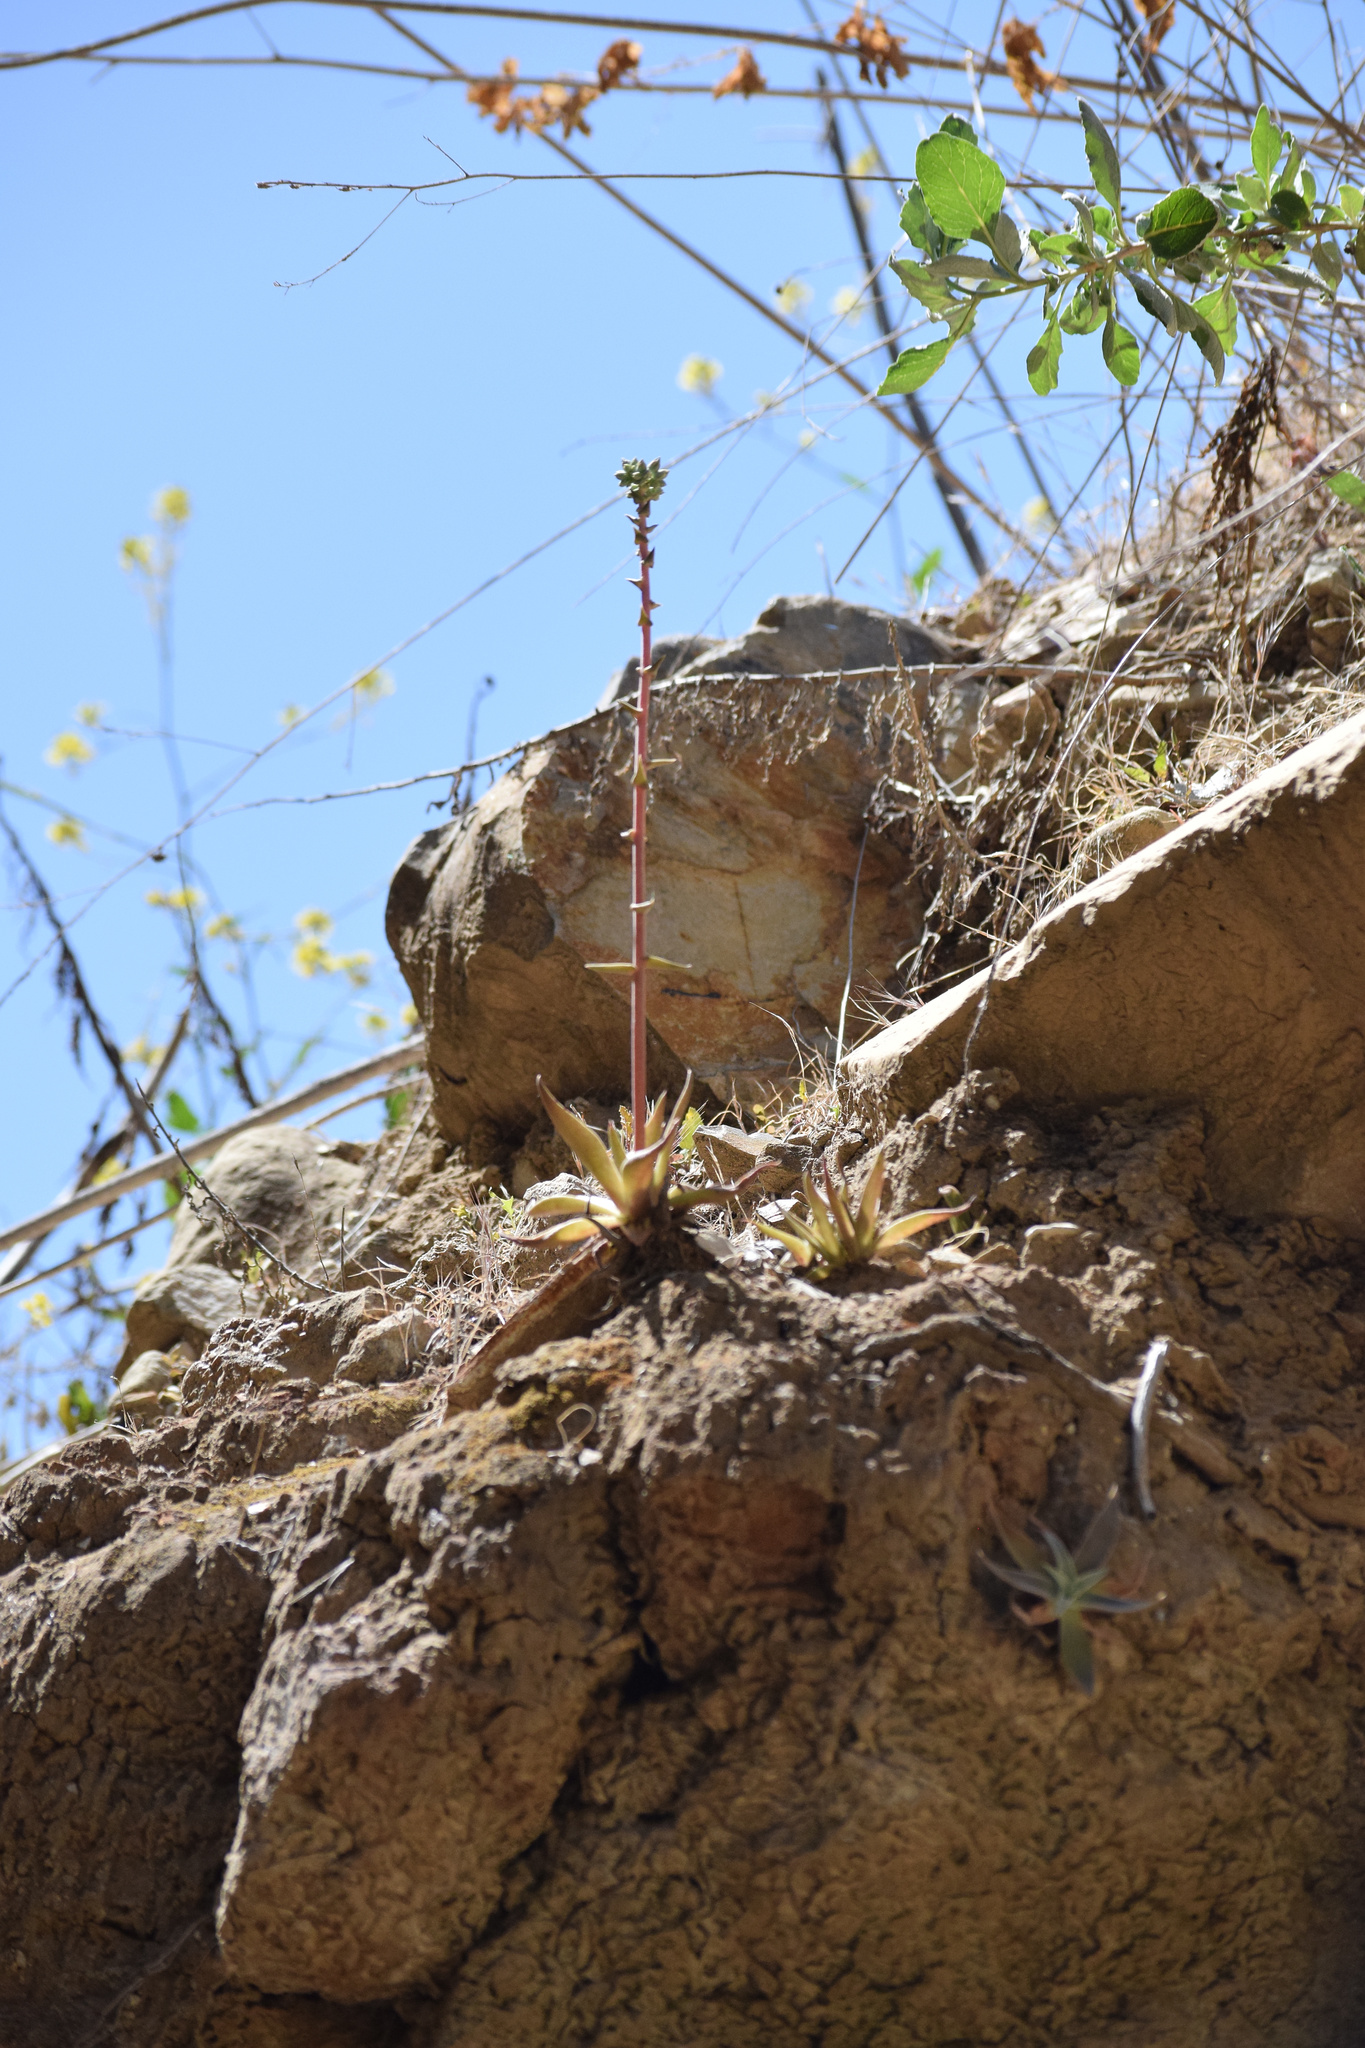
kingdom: Plantae
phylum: Tracheophyta
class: Magnoliopsida
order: Saxifragales
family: Crassulaceae
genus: Dudleya
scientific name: Dudleya lanceolata
